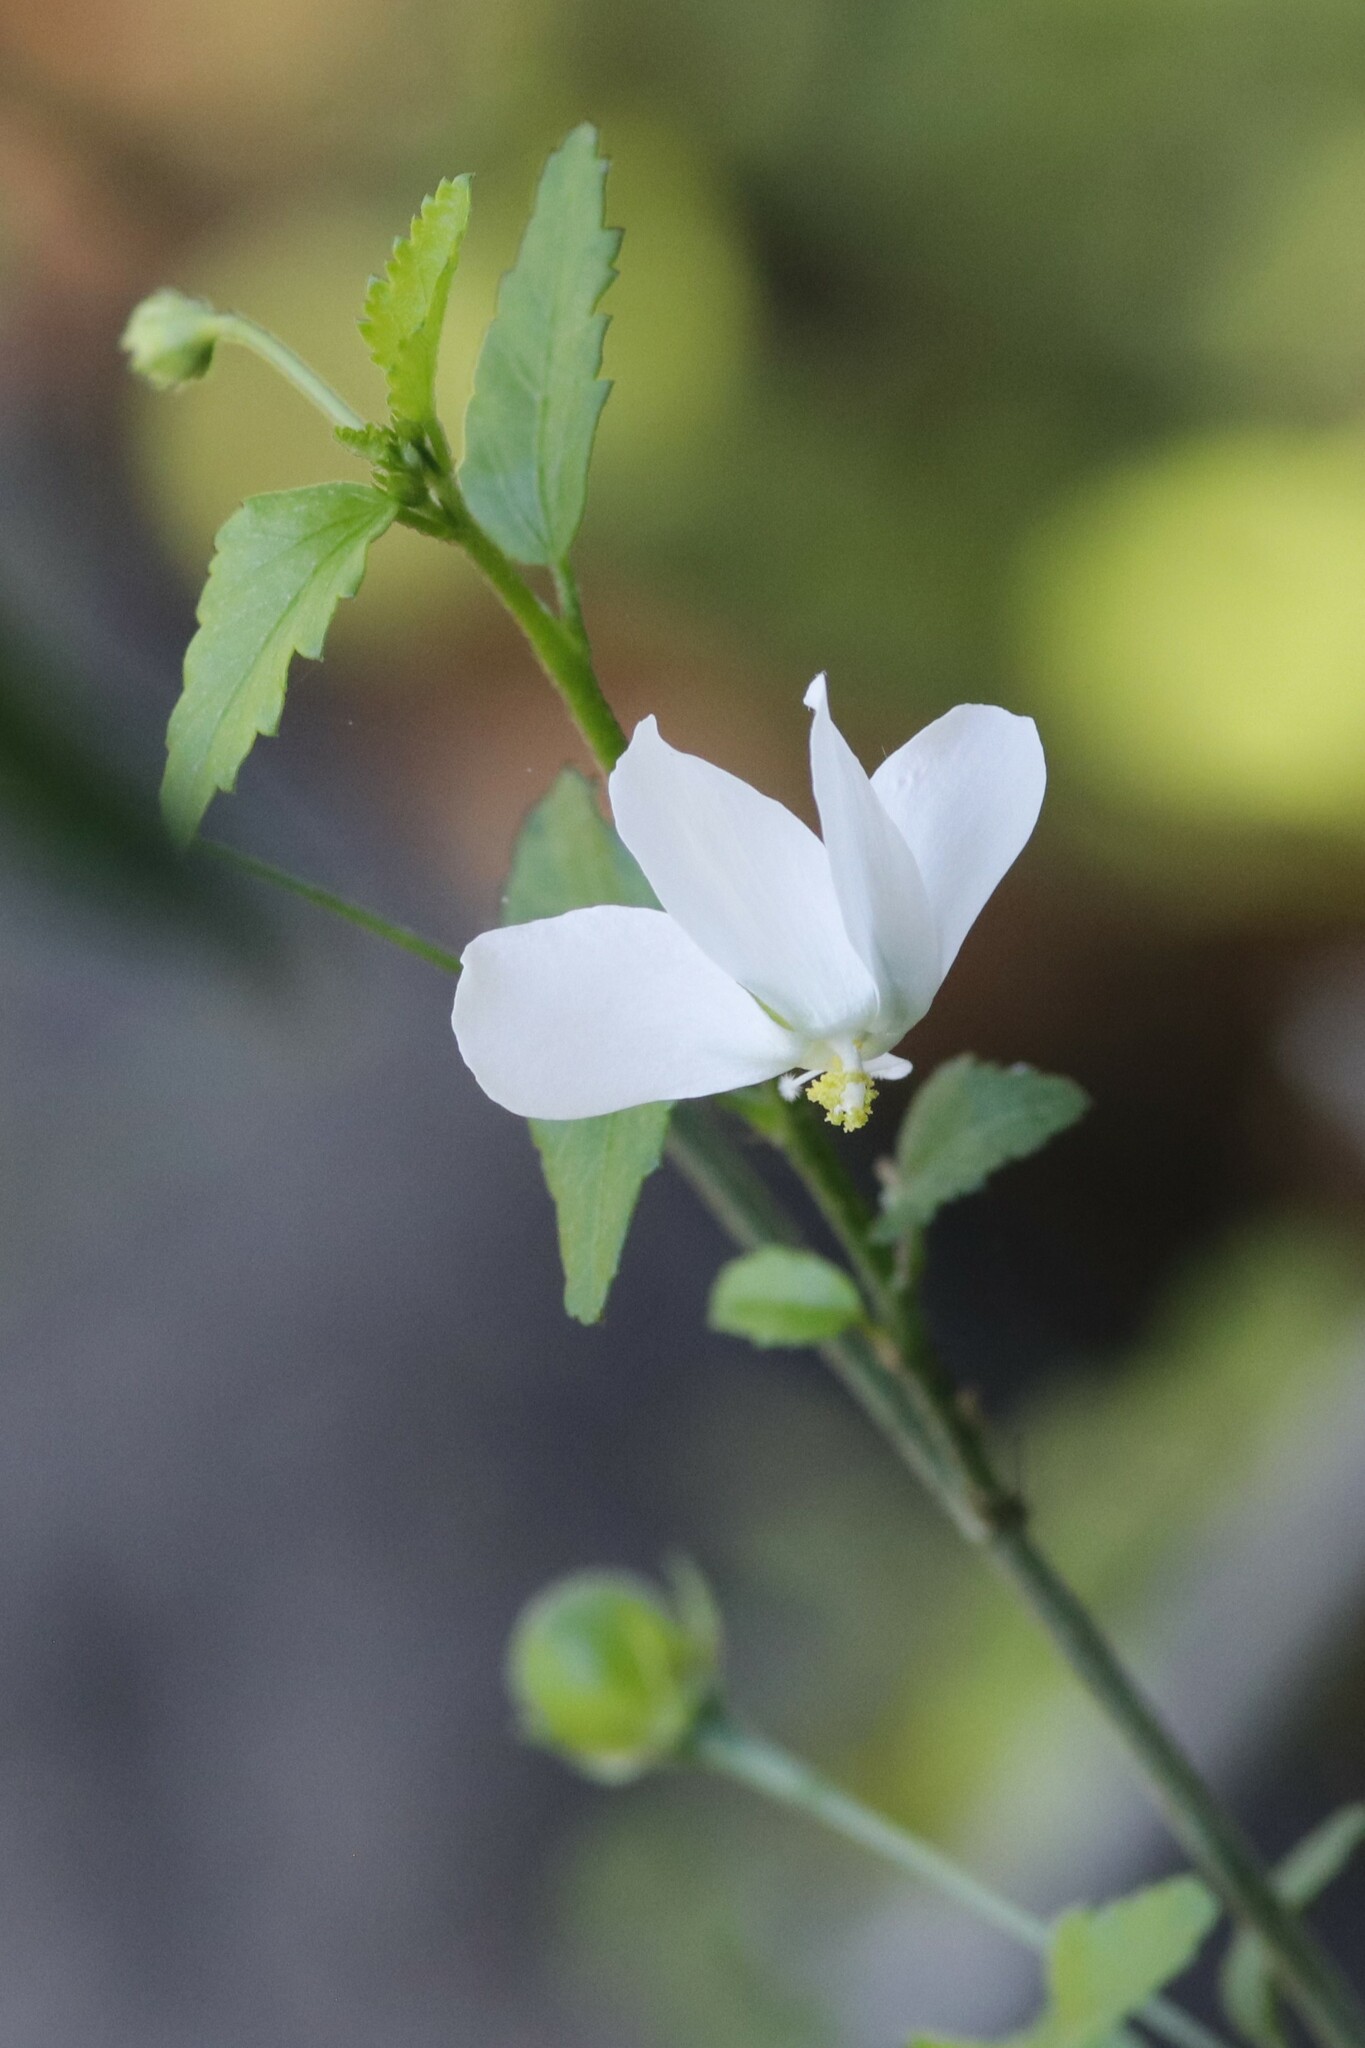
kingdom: Plantae
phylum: Tracheophyta
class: Magnoliopsida
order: Malvales
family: Malvaceae
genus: Hibiscus
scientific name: Hibiscus micranthus
